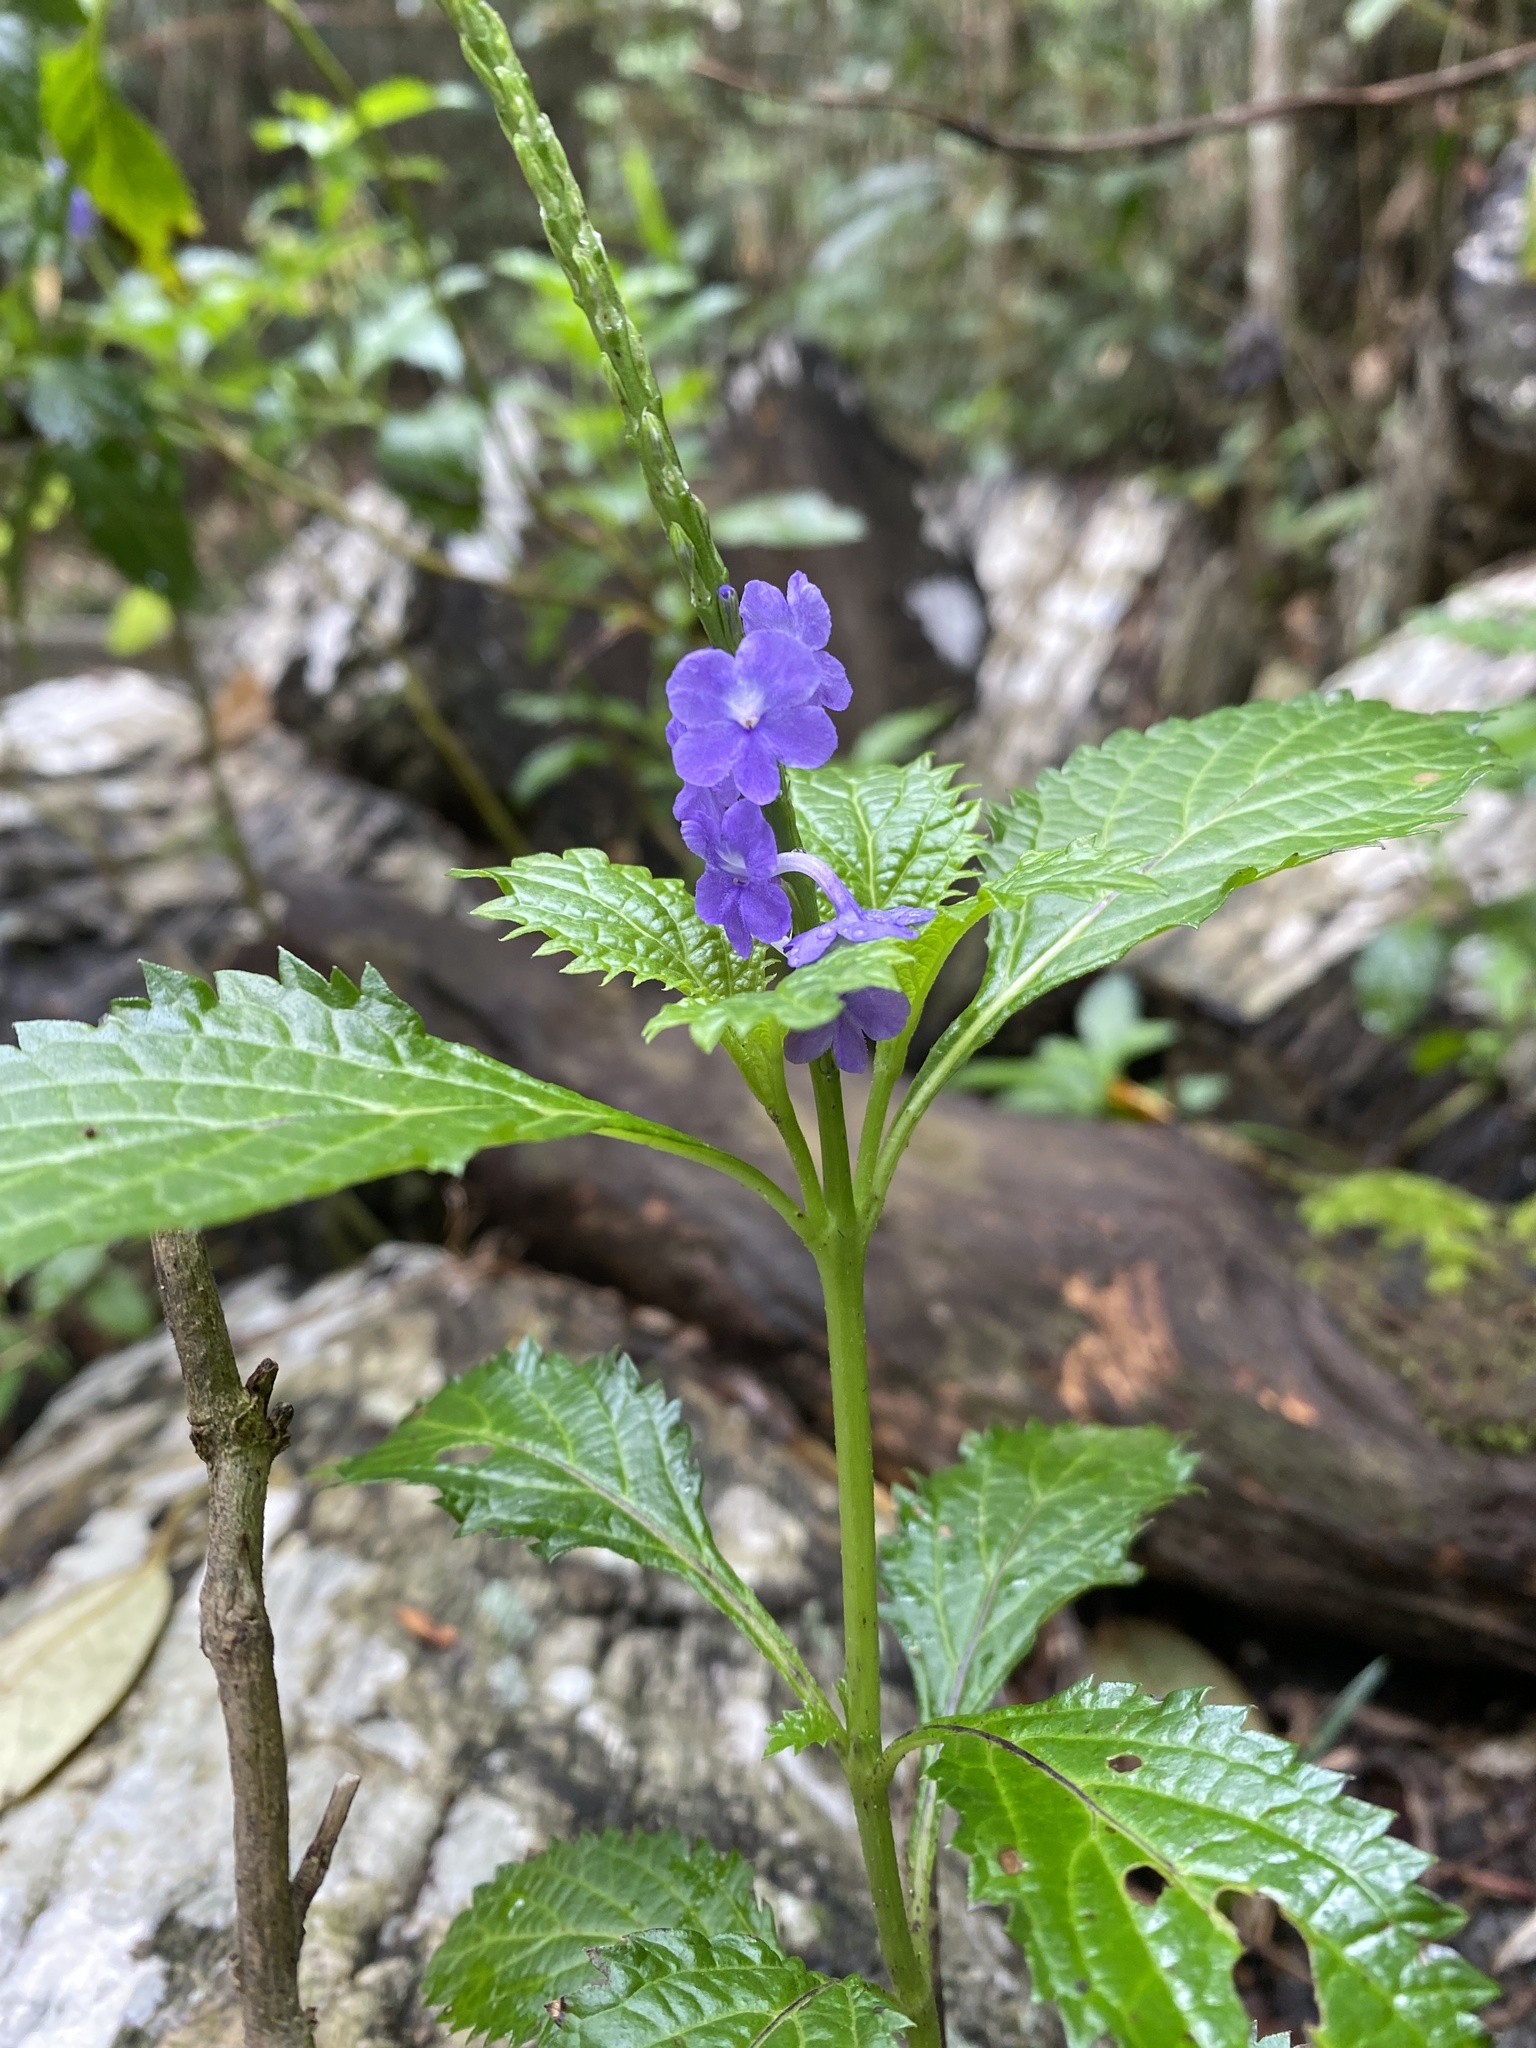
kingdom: Plantae
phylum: Tracheophyta
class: Magnoliopsida
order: Lamiales
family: Verbenaceae
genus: Stachytarpheta
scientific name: Stachytarpheta urticifolia
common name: Nettleleaf velvetberry
